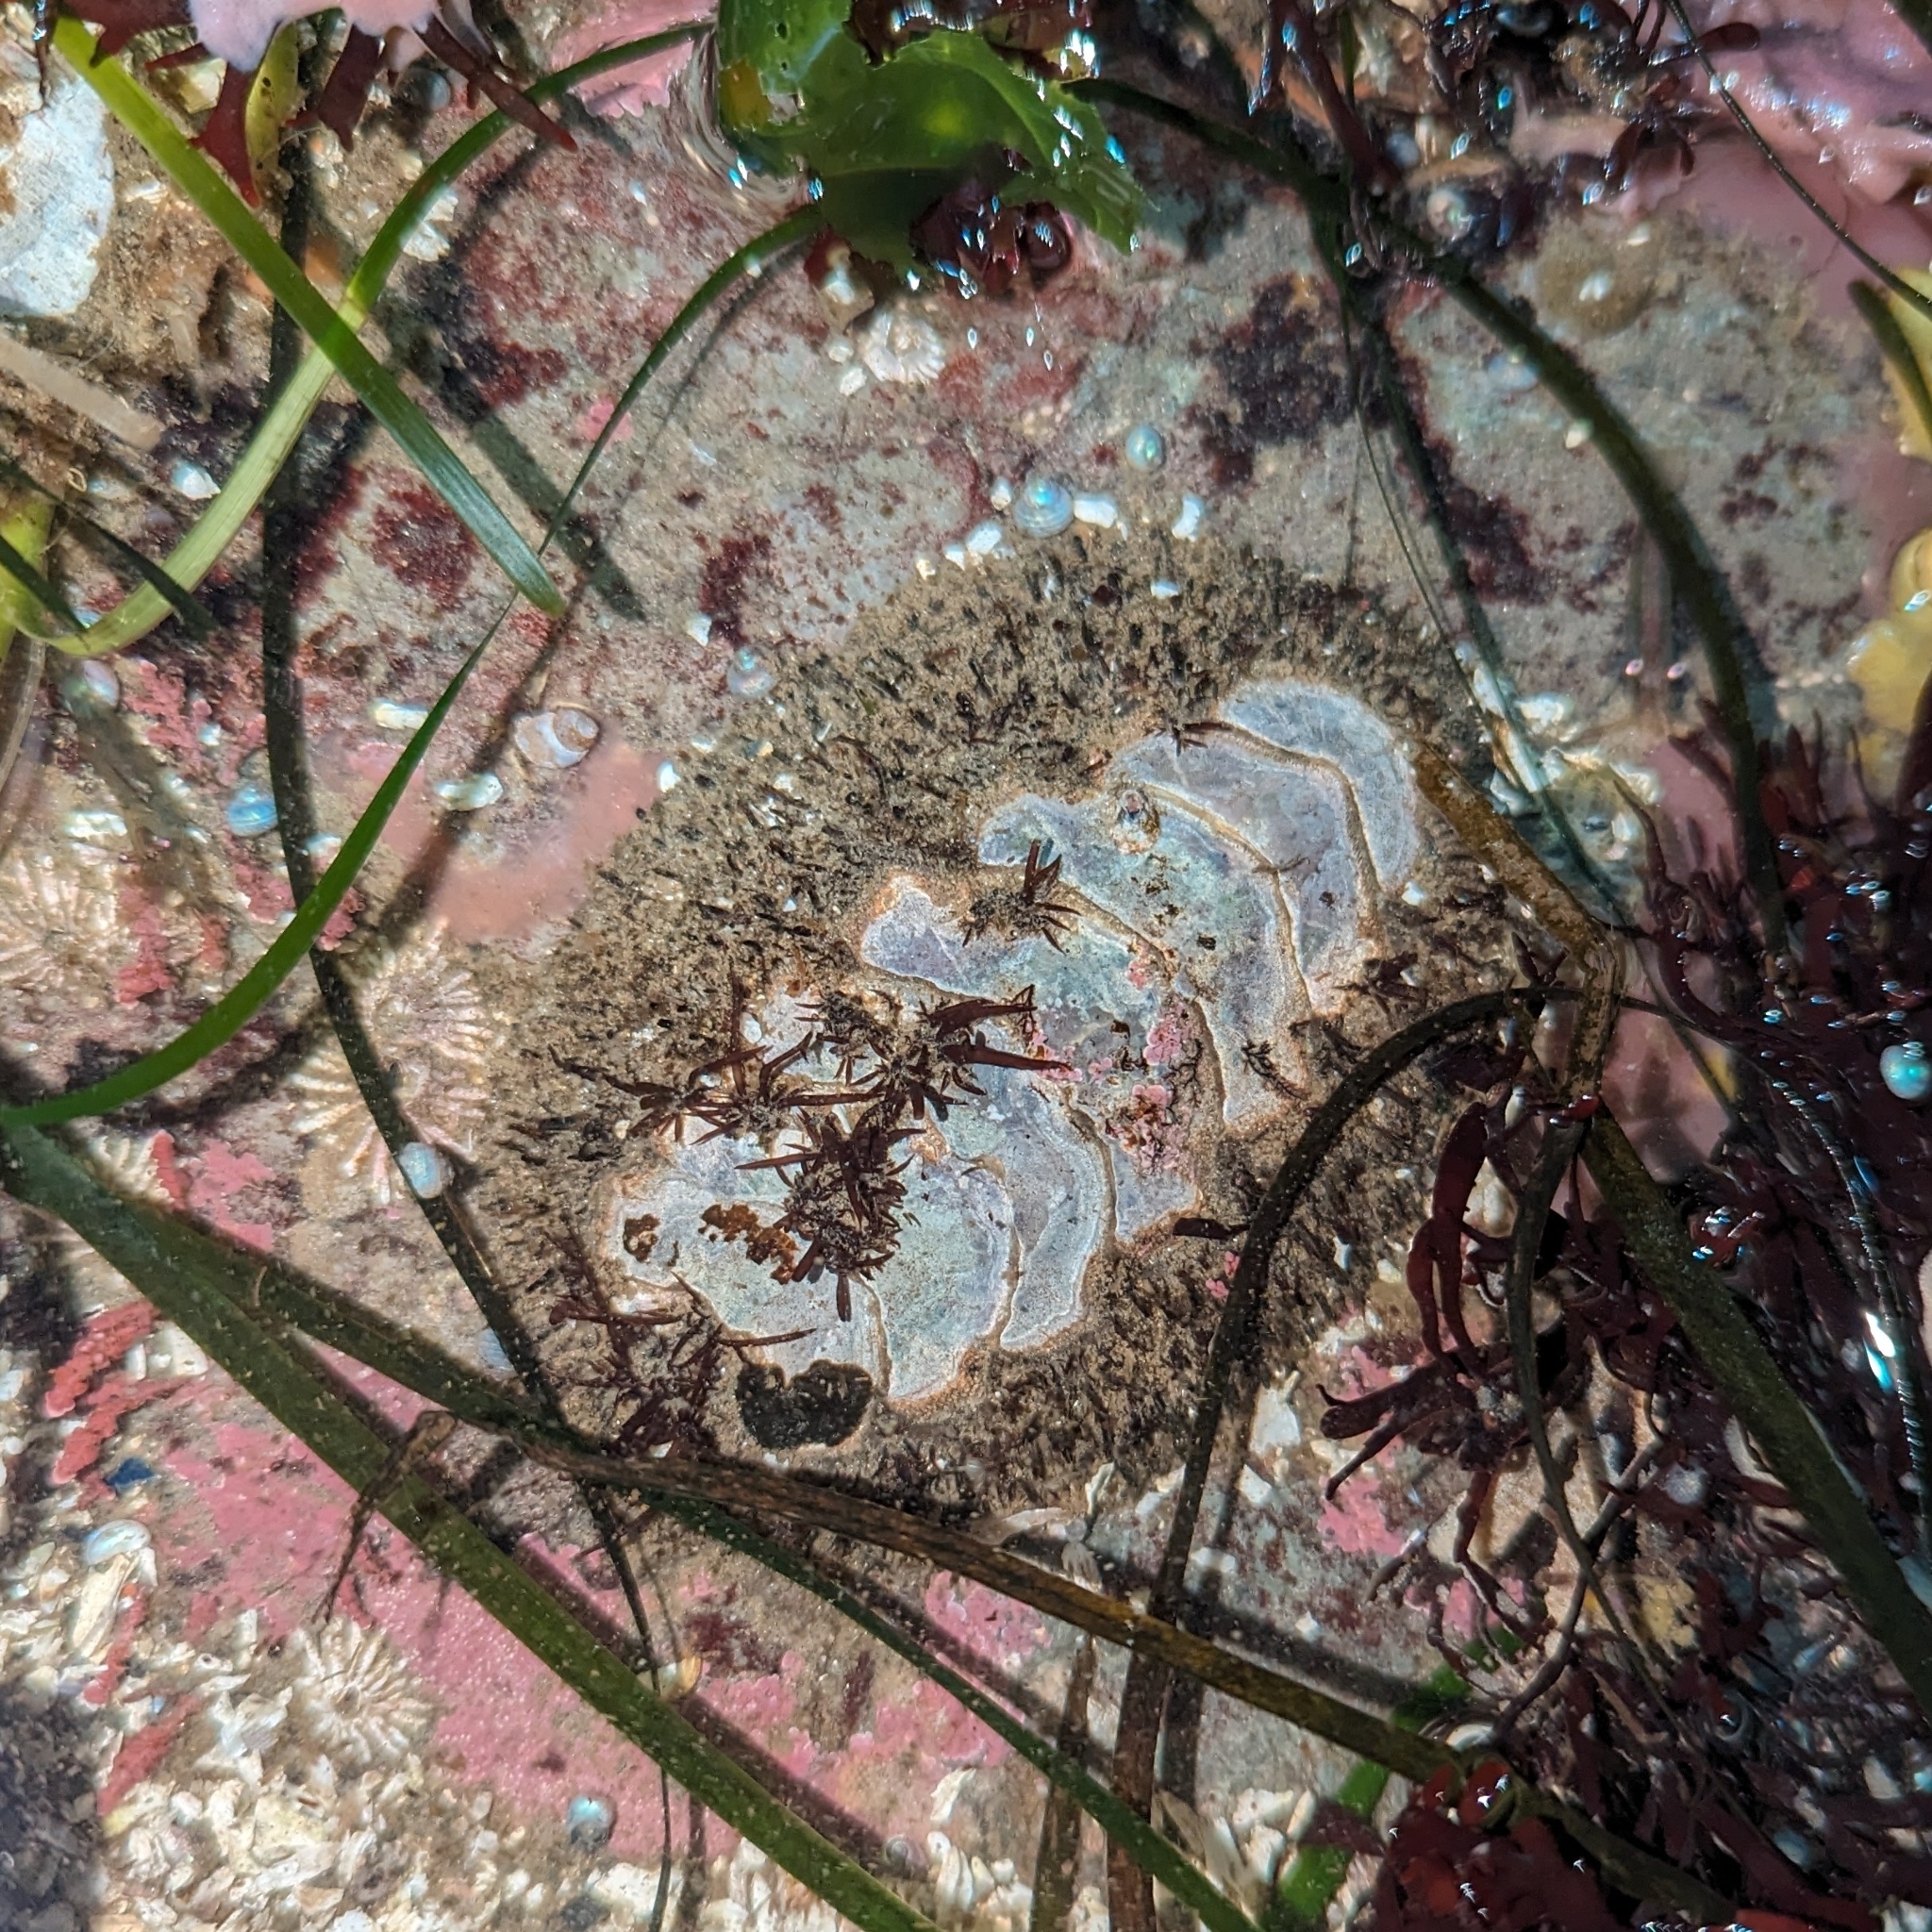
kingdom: Animalia
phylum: Mollusca
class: Polyplacophora
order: Chitonida
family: Mopaliidae
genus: Mopalia
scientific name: Mopalia muscosa
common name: Mossy chiton
